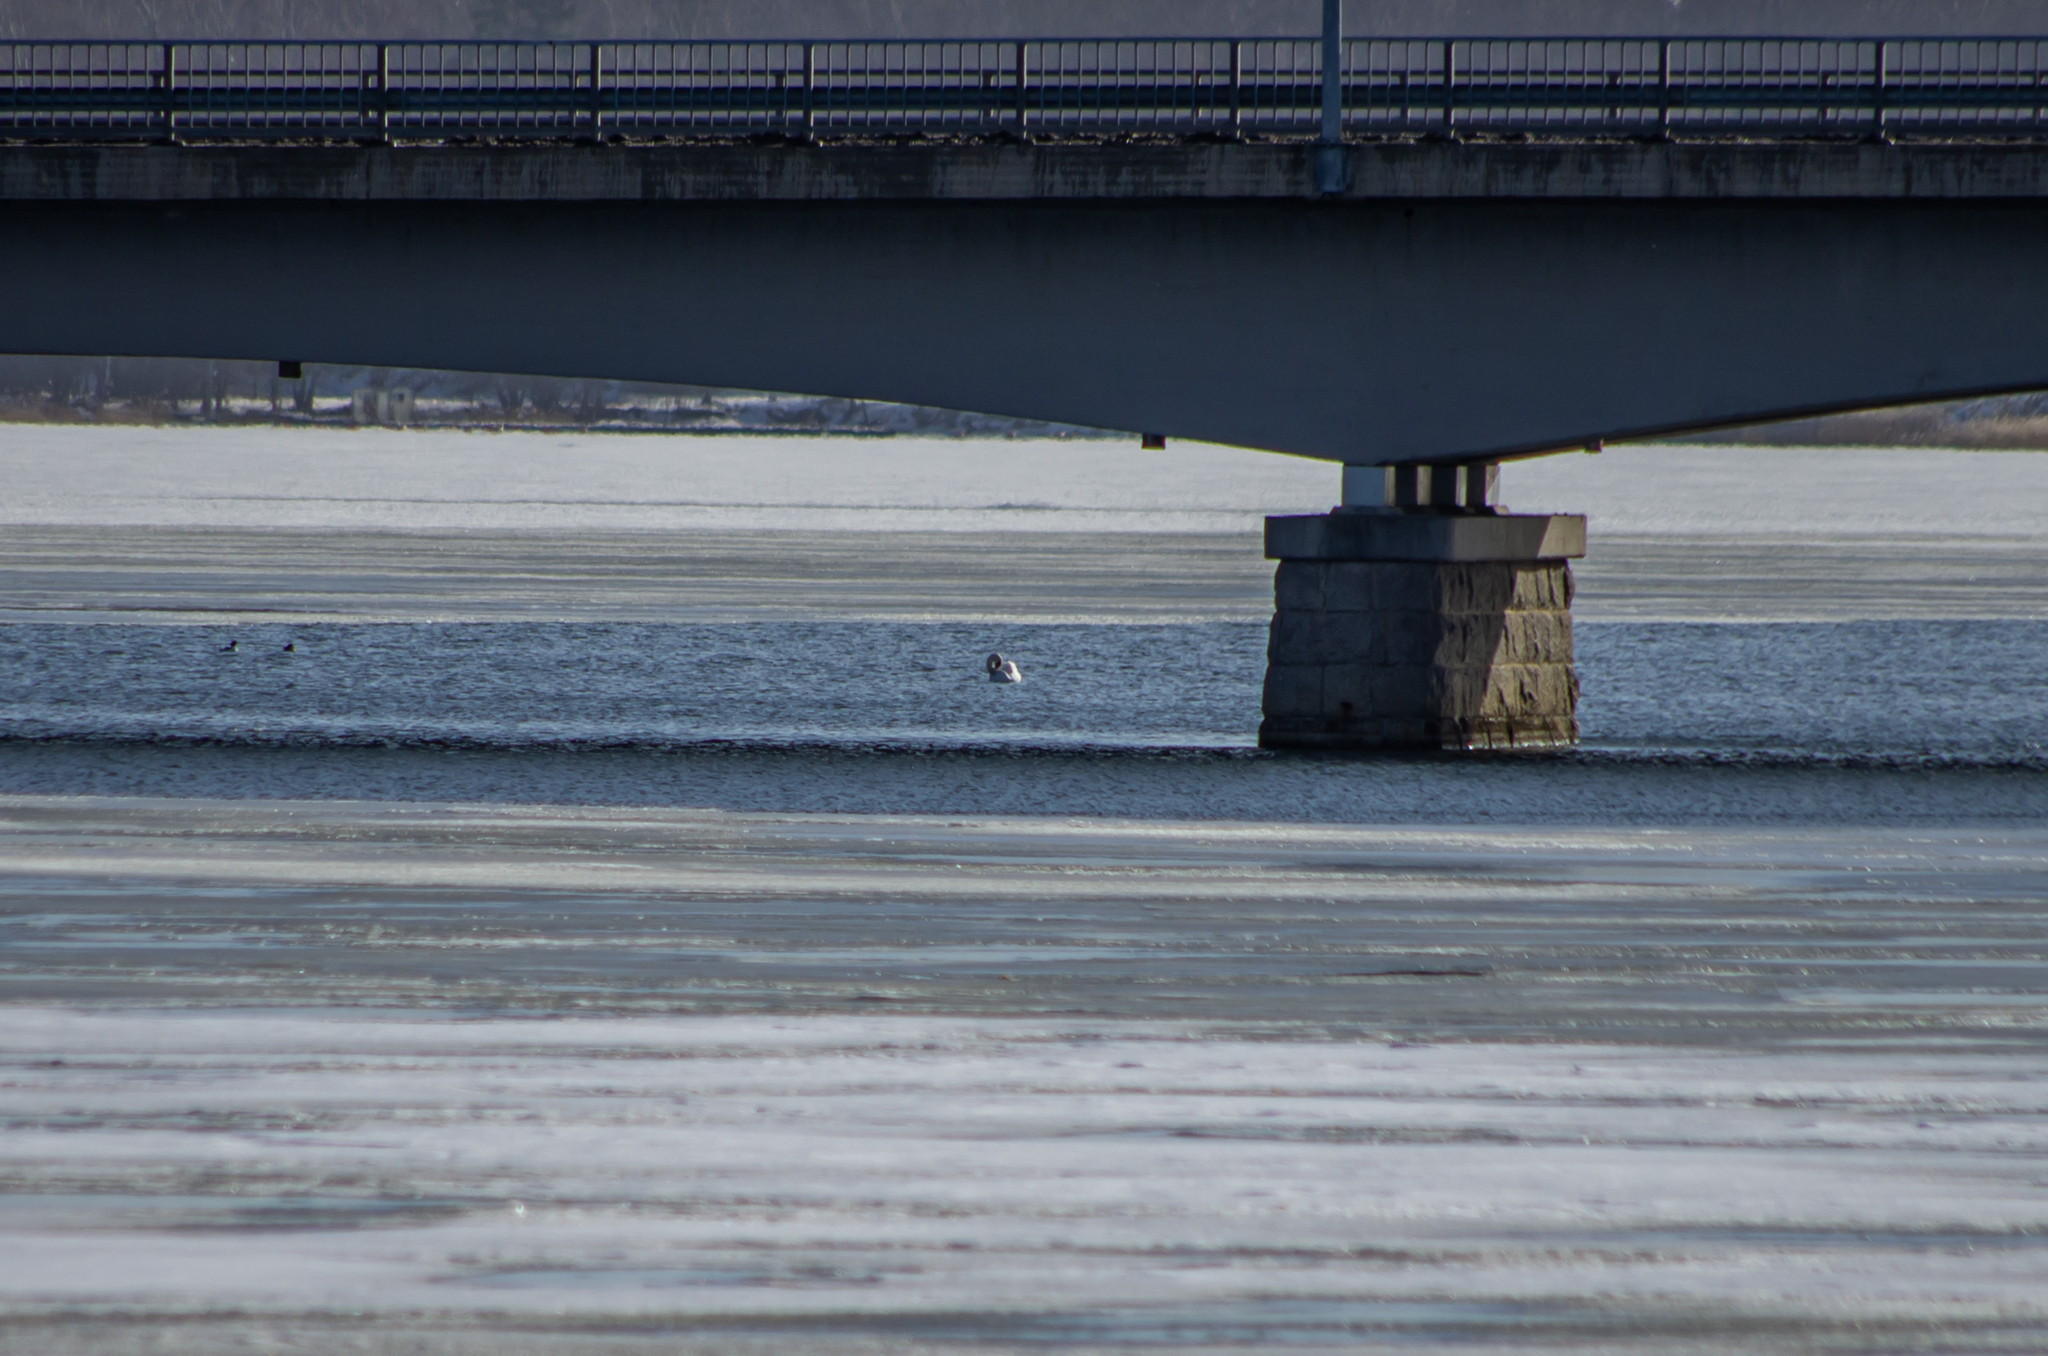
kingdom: Animalia
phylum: Chordata
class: Aves
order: Anseriformes
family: Anatidae
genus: Cygnus
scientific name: Cygnus olor
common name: Mute swan
